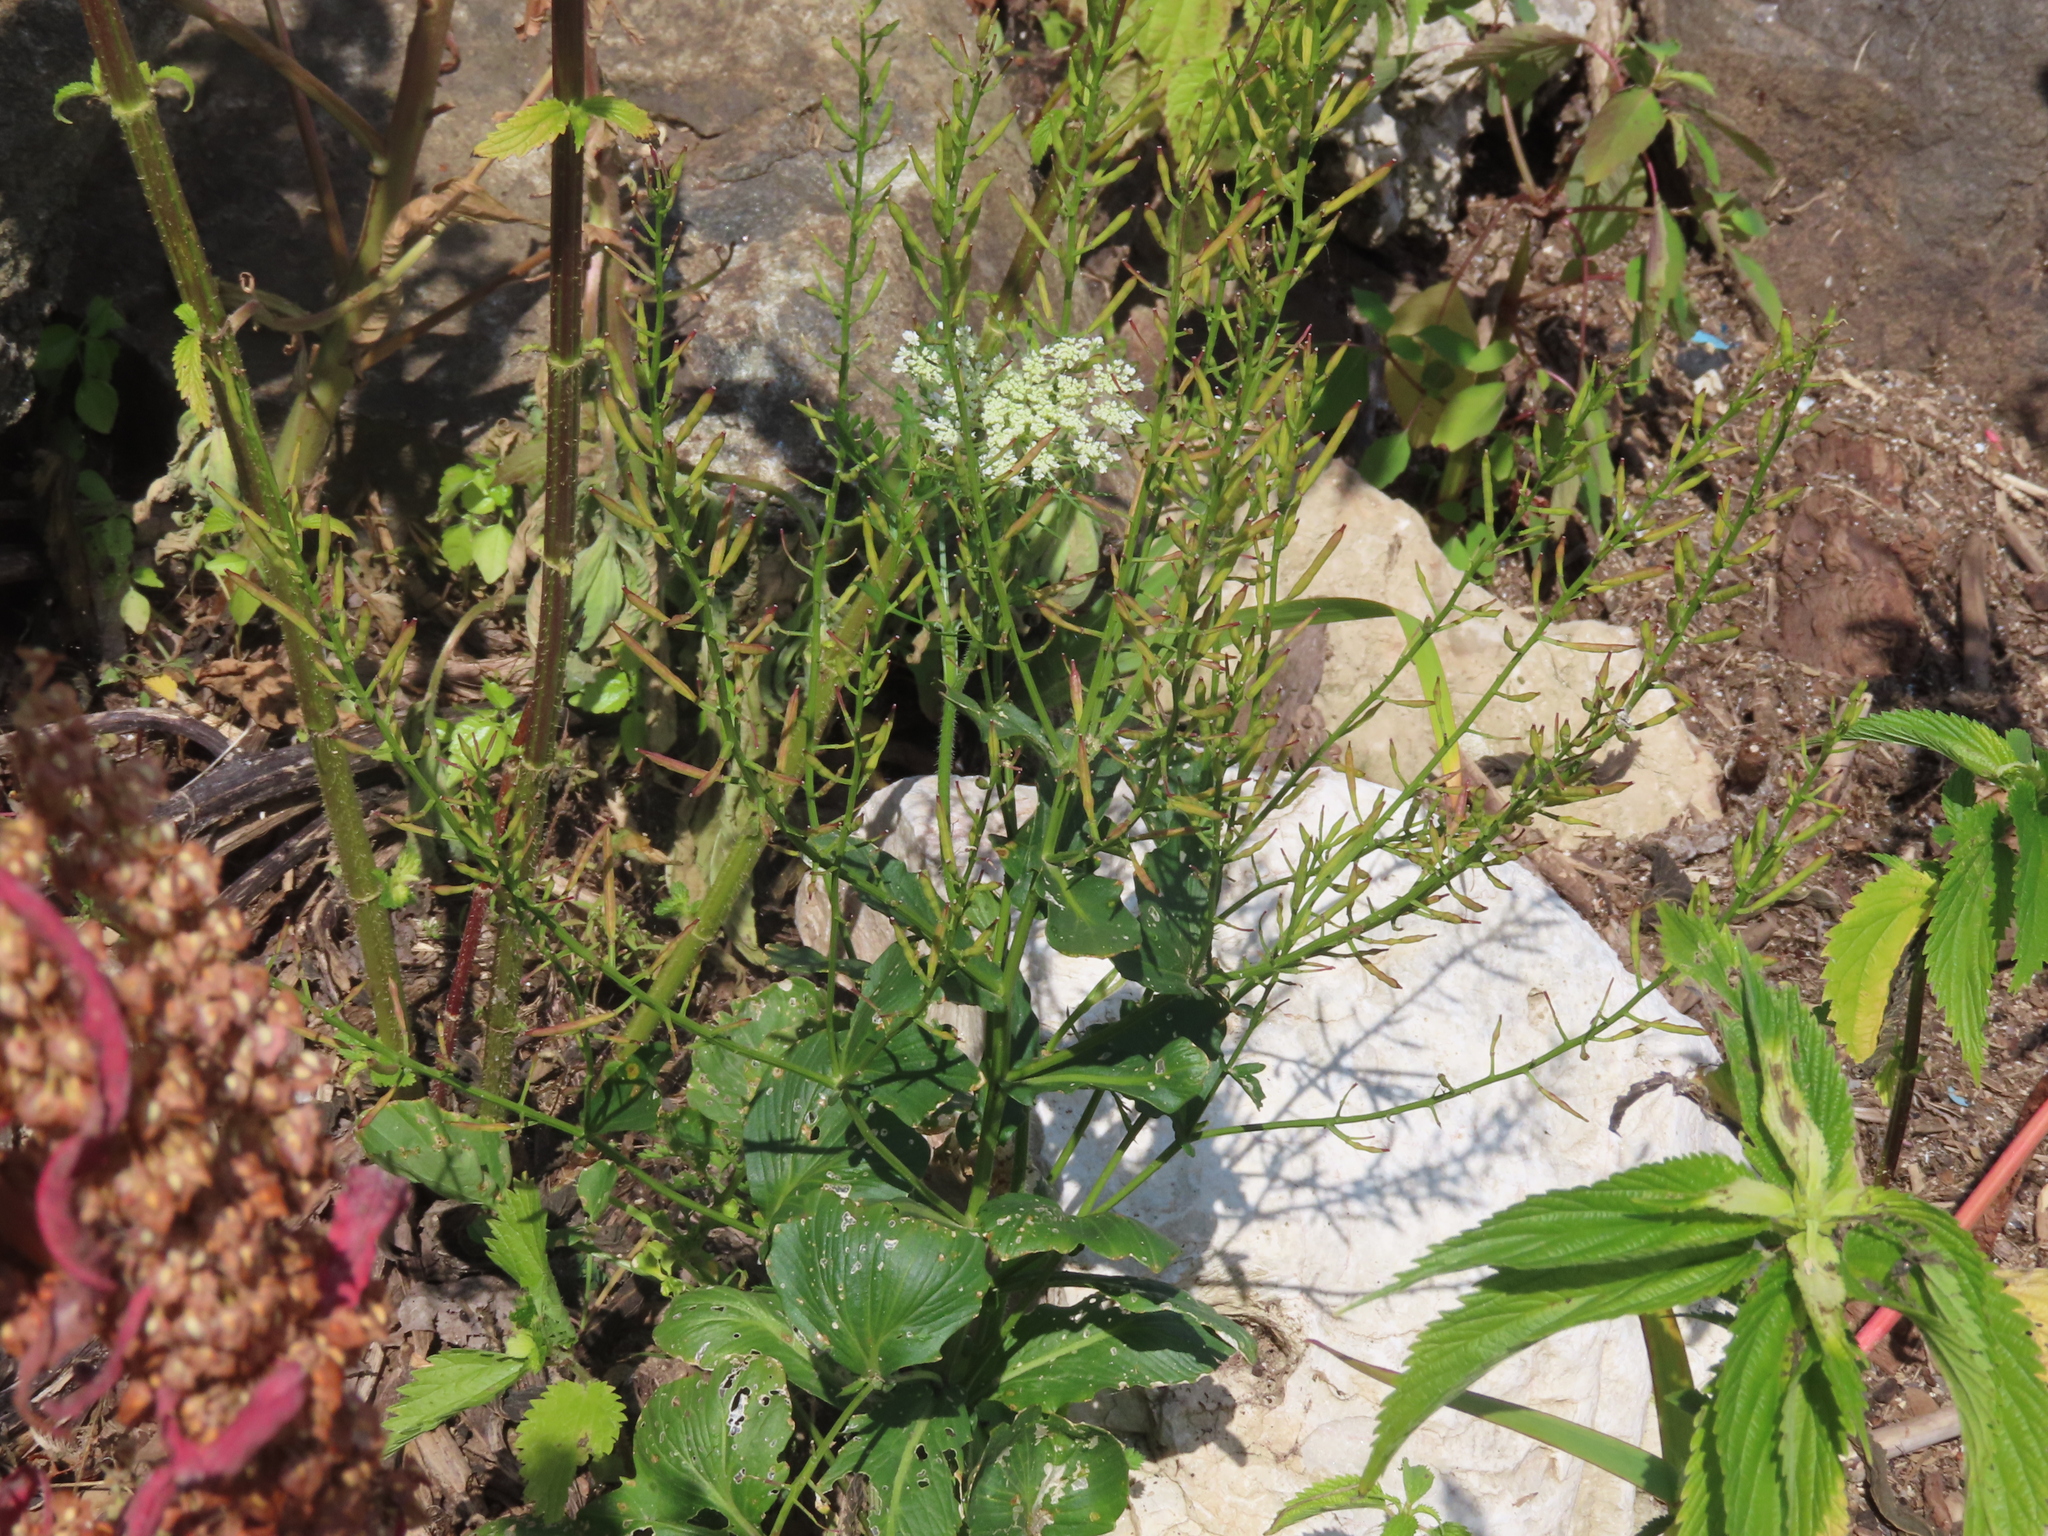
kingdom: Plantae
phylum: Tracheophyta
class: Magnoliopsida
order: Apiales
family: Apiaceae
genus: Daucus
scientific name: Daucus carota
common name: Wild carrot
